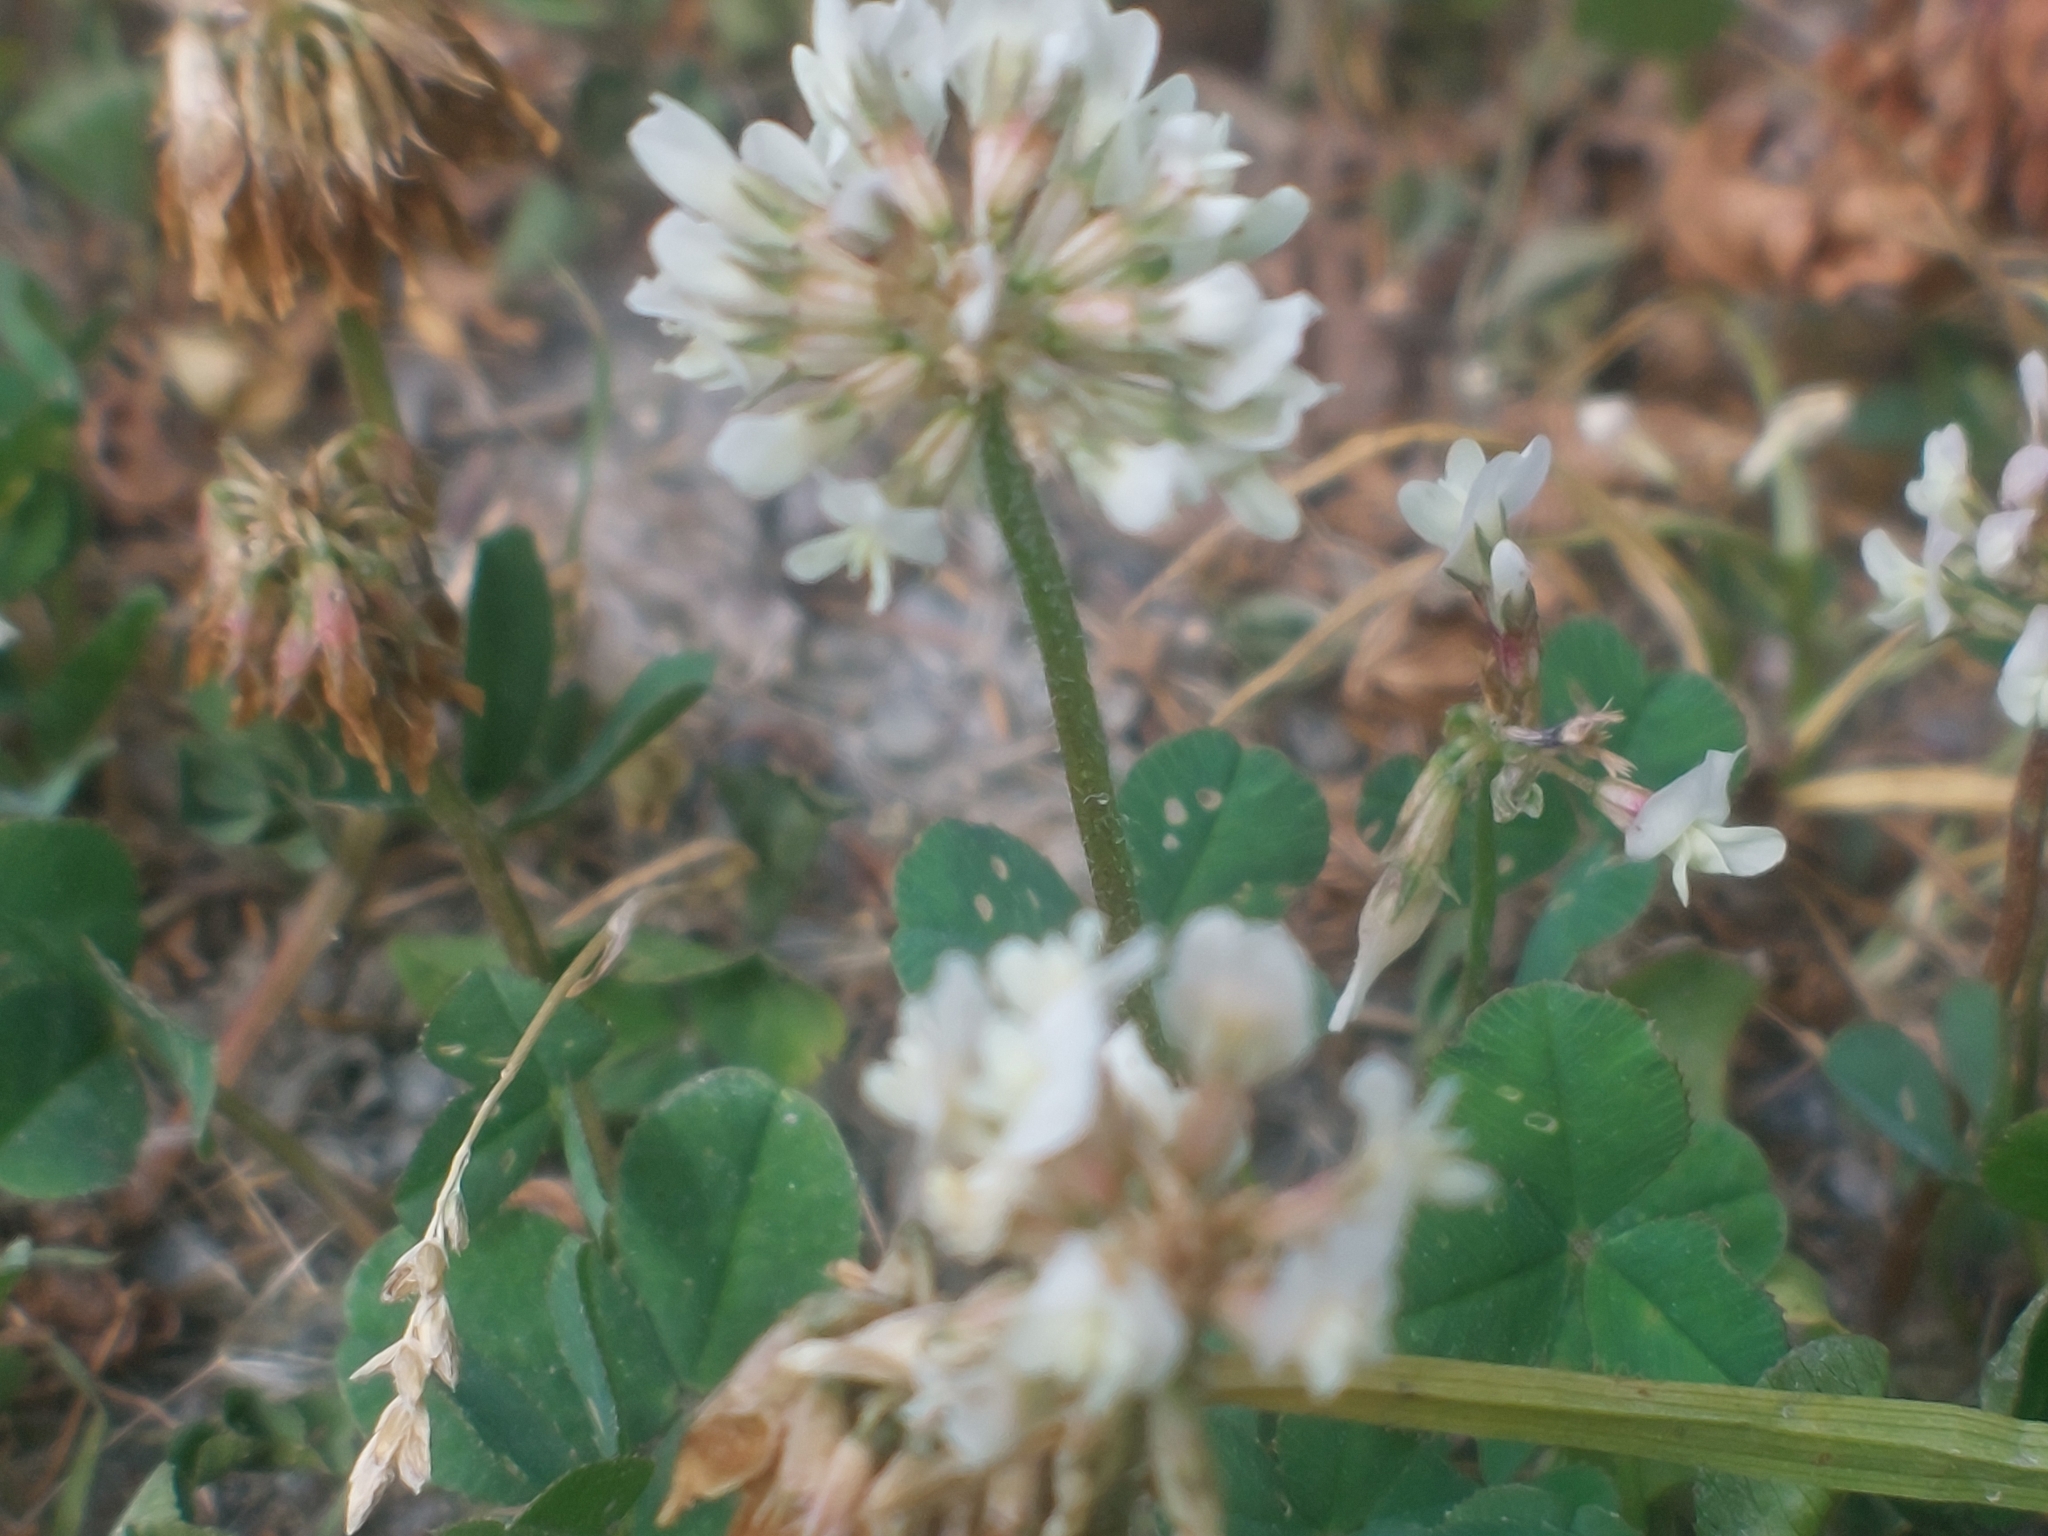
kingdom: Plantae
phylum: Tracheophyta
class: Magnoliopsida
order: Fabales
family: Fabaceae
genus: Trifolium
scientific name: Trifolium repens
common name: White clover
